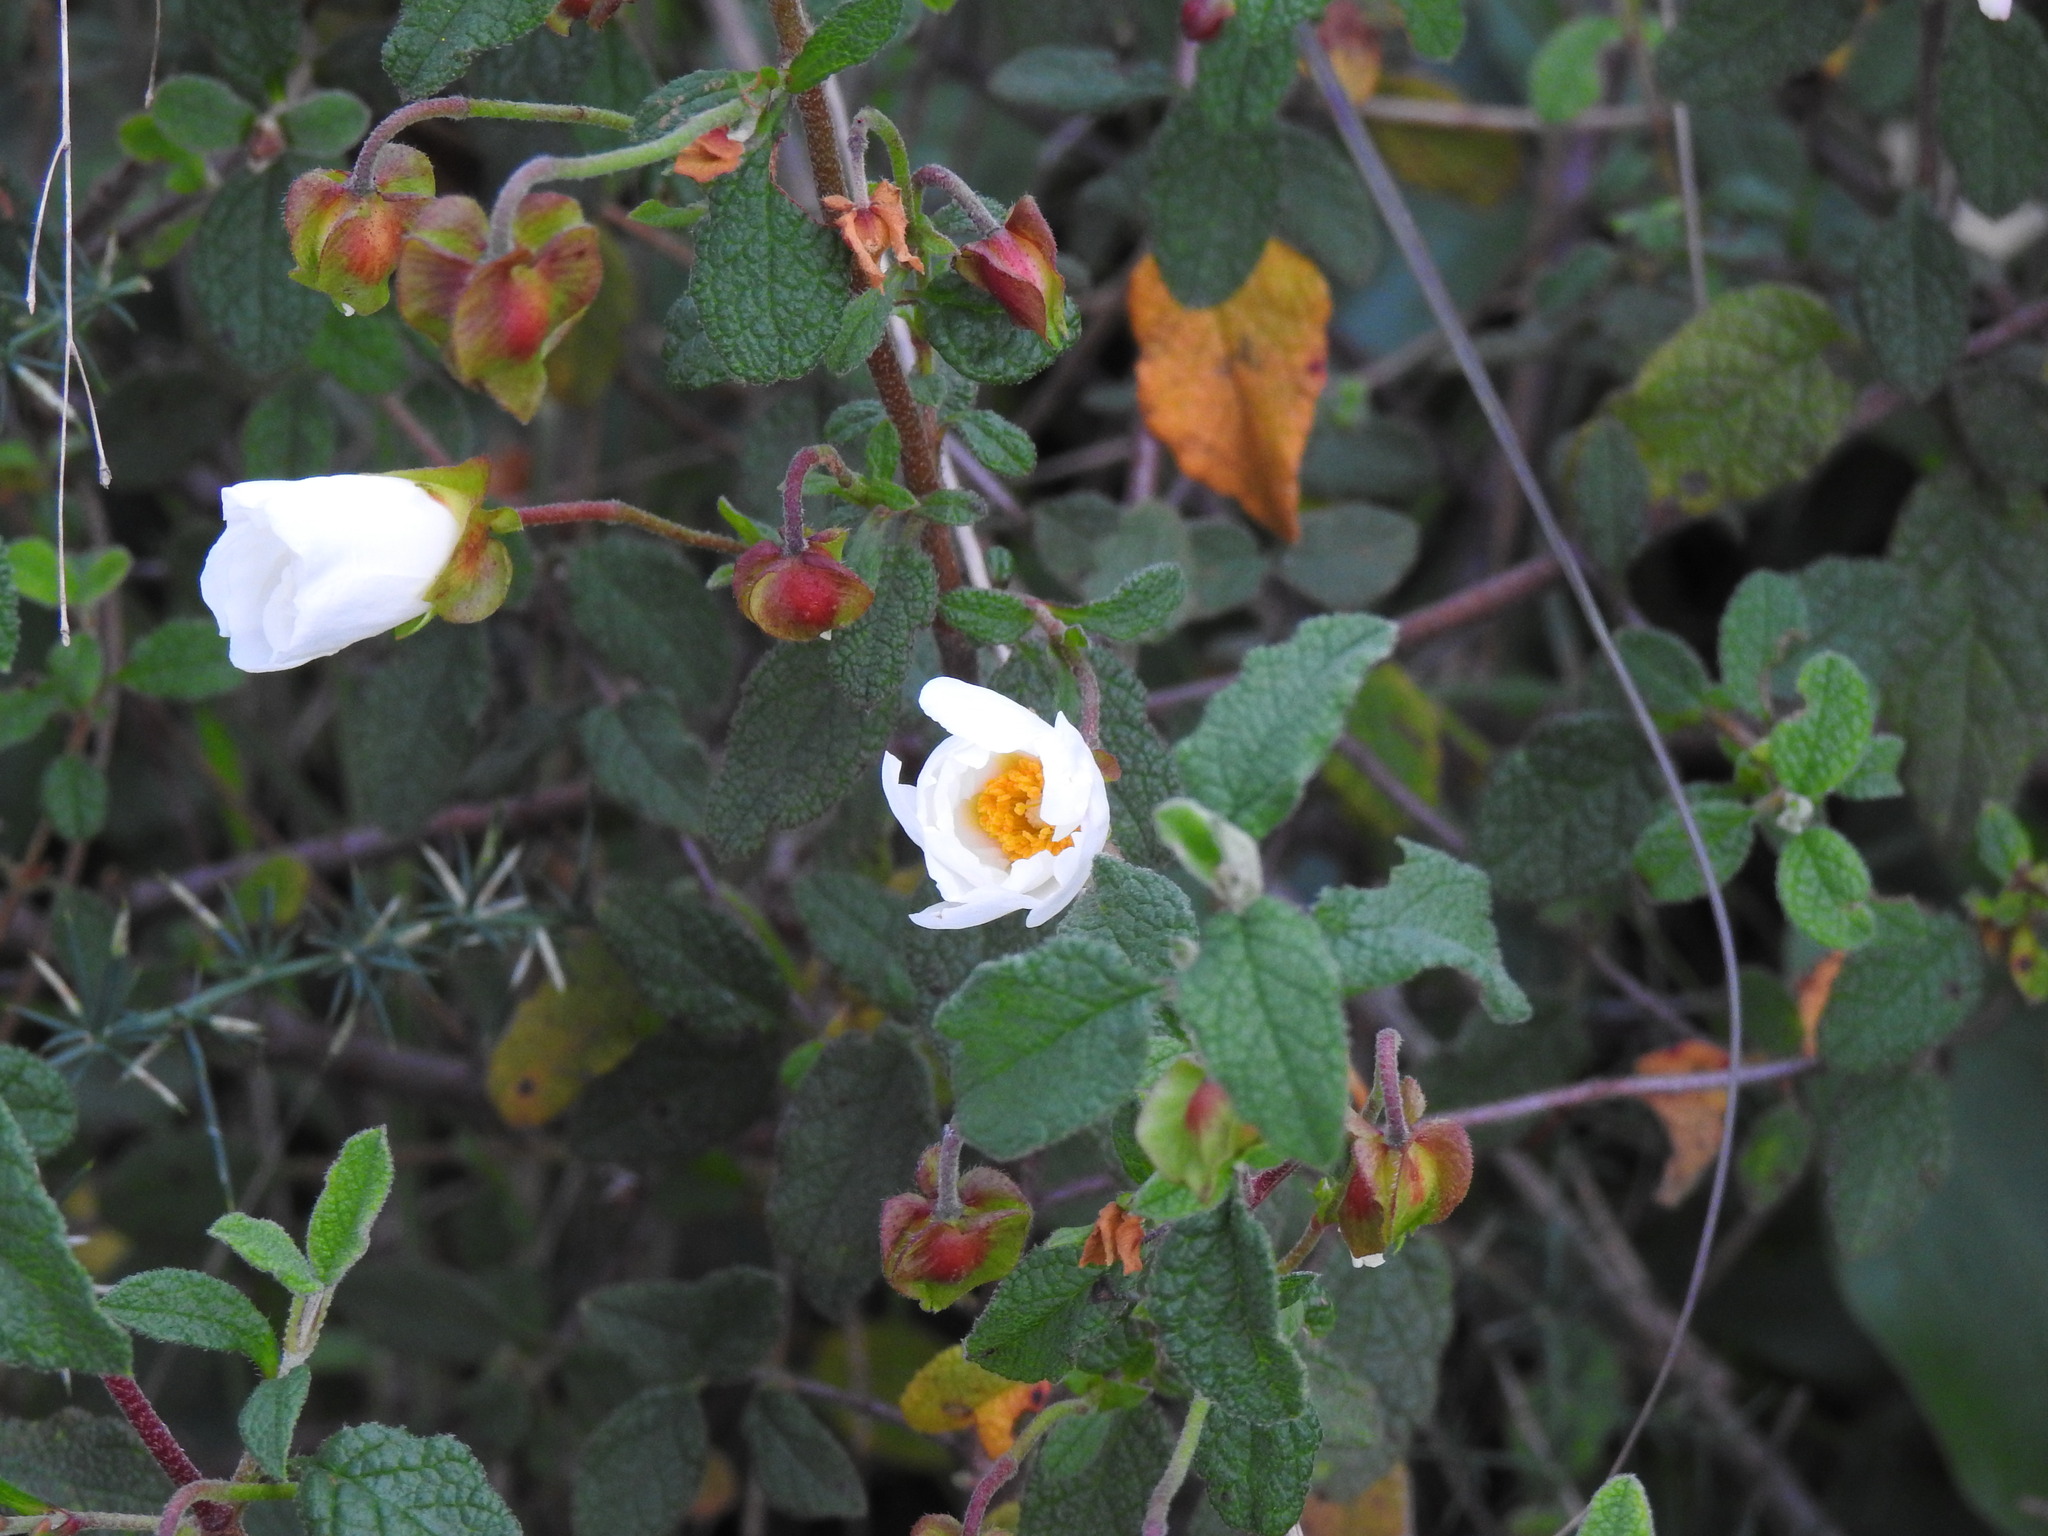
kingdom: Plantae
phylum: Tracheophyta
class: Magnoliopsida
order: Malvales
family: Cistaceae
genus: Cistus
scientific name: Cistus salviifolius
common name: Salvia cistus
